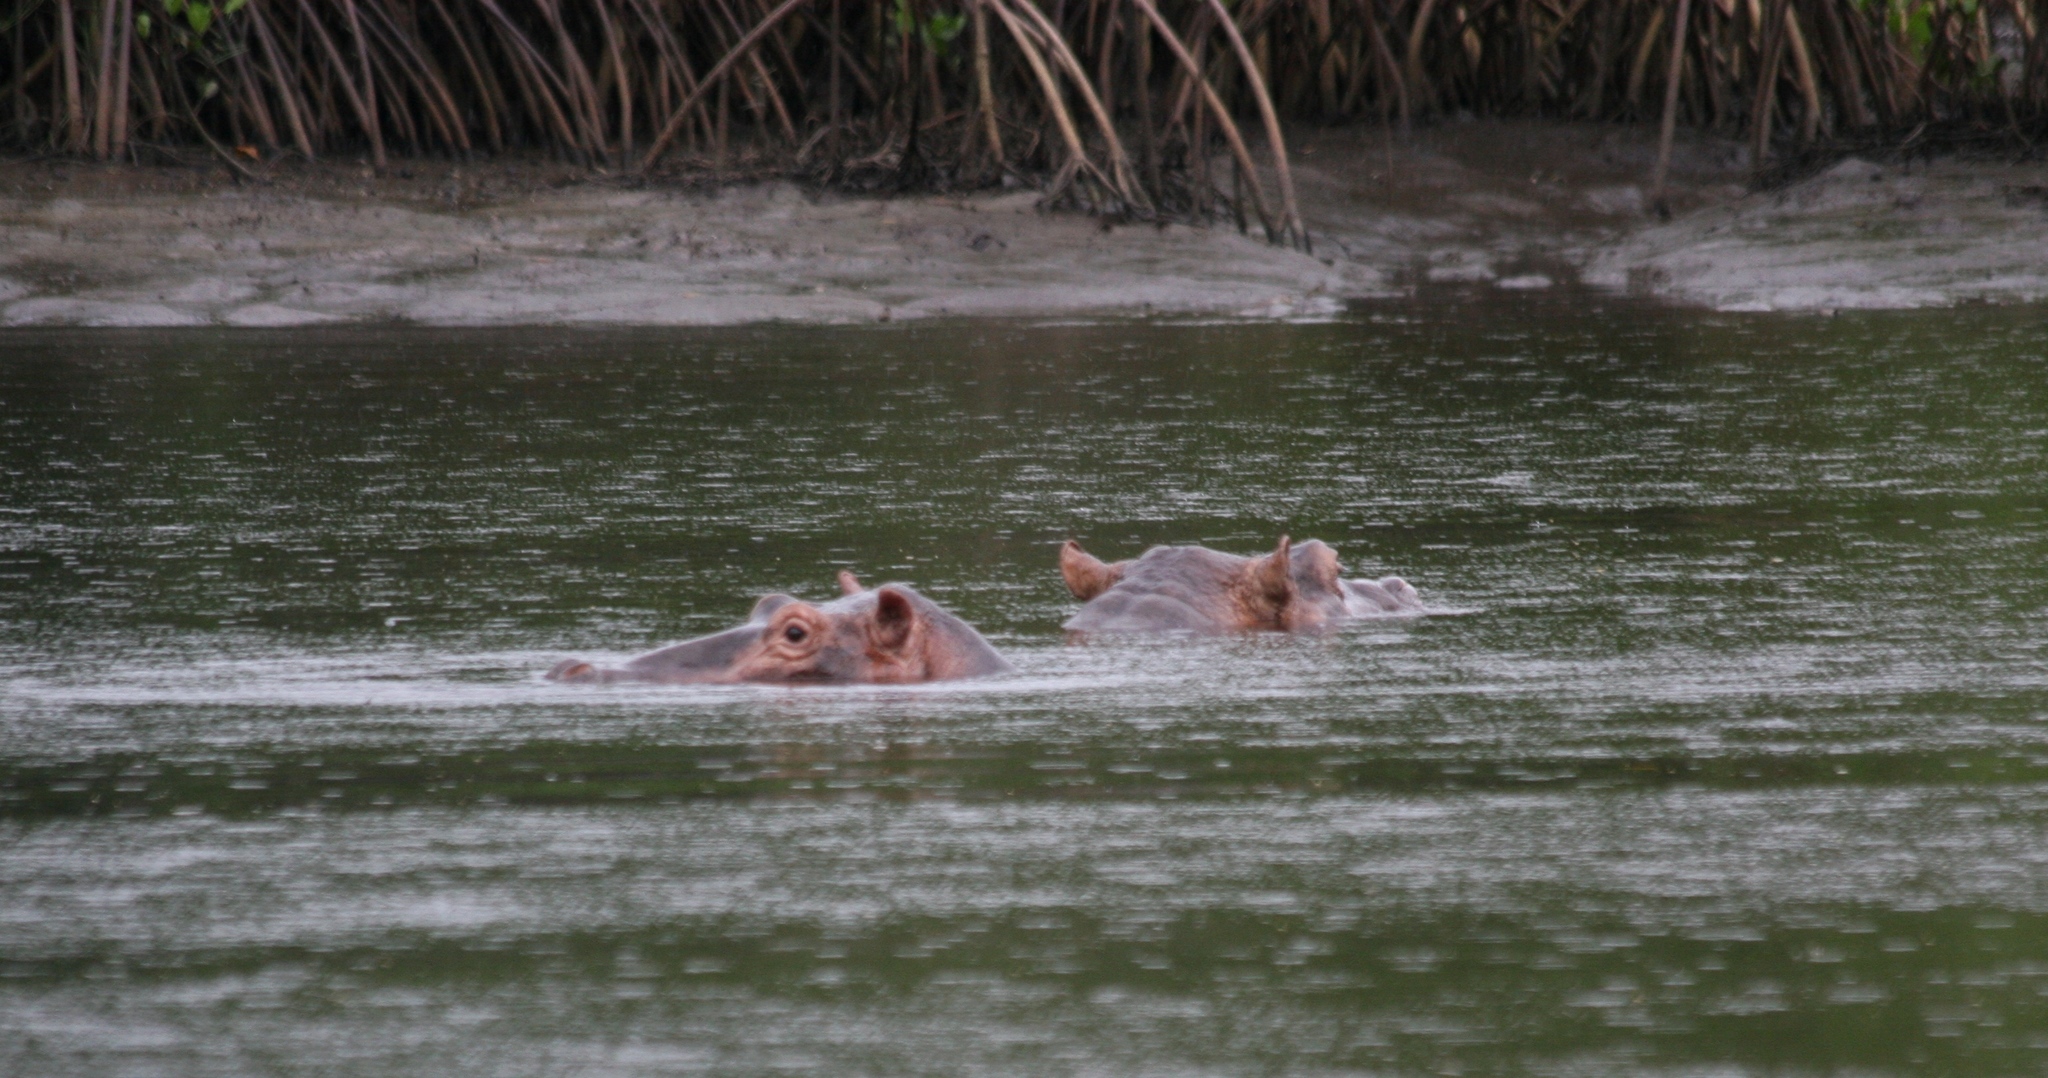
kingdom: Animalia
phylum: Chordata
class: Mammalia
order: Artiodactyla
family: Hippopotamidae
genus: Hippopotamus
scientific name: Hippopotamus amphibius
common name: Common hippopotamus
